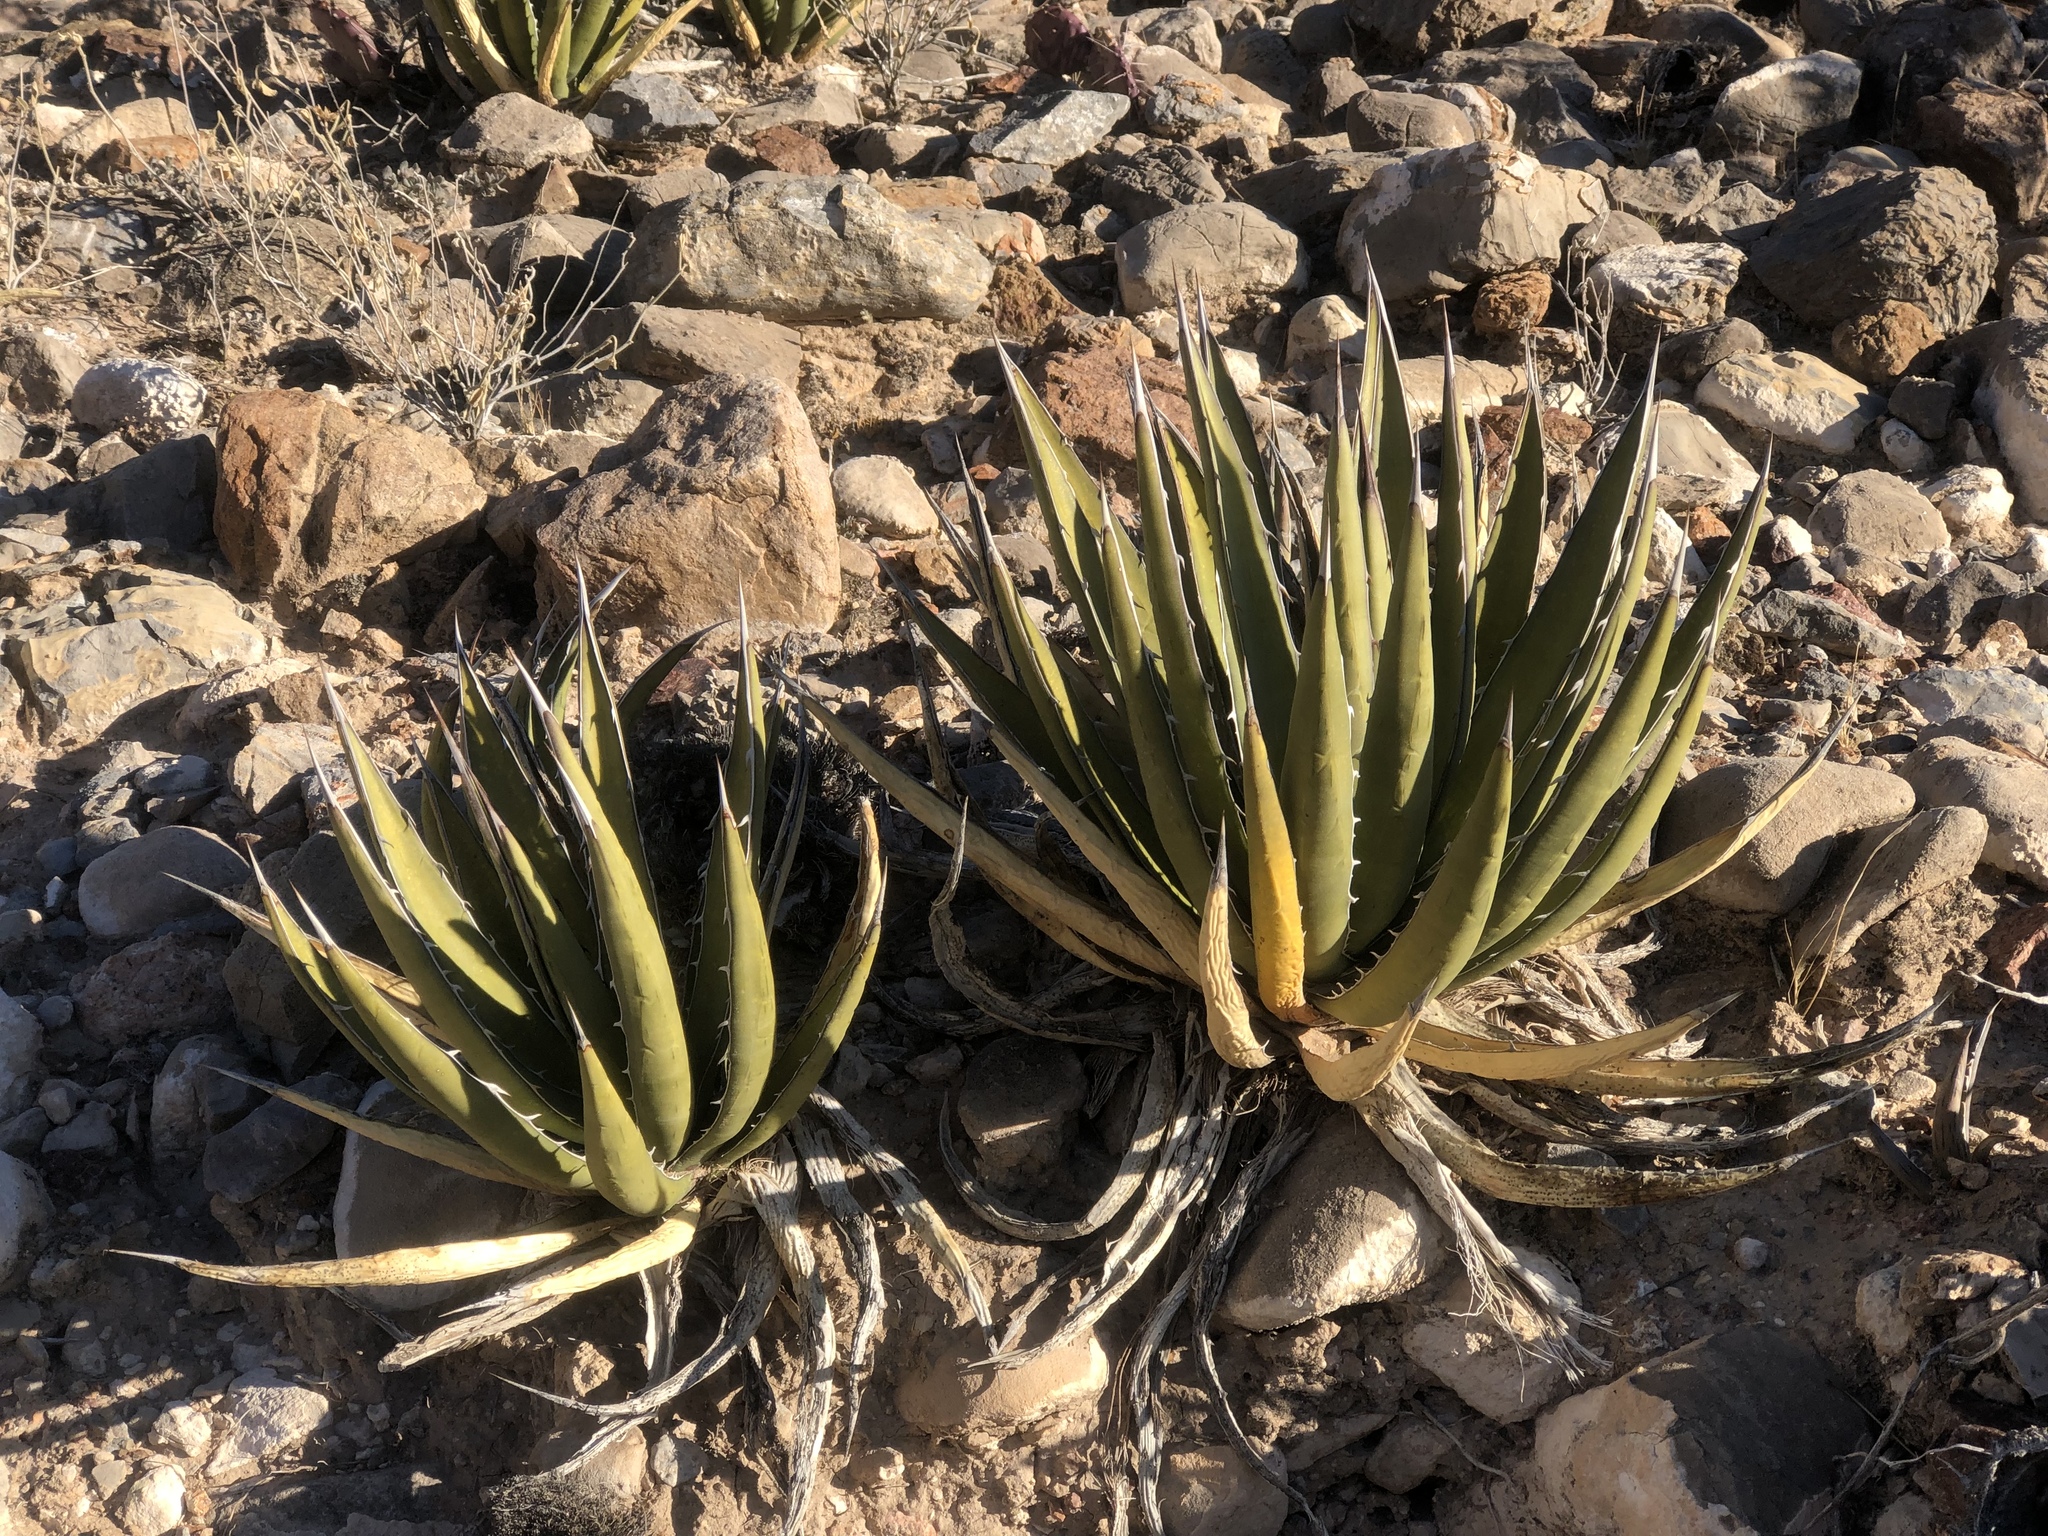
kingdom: Plantae
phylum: Tracheophyta
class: Liliopsida
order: Asparagales
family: Asparagaceae
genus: Agave
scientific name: Agave lechuguilla
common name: Lecheguilla agave
